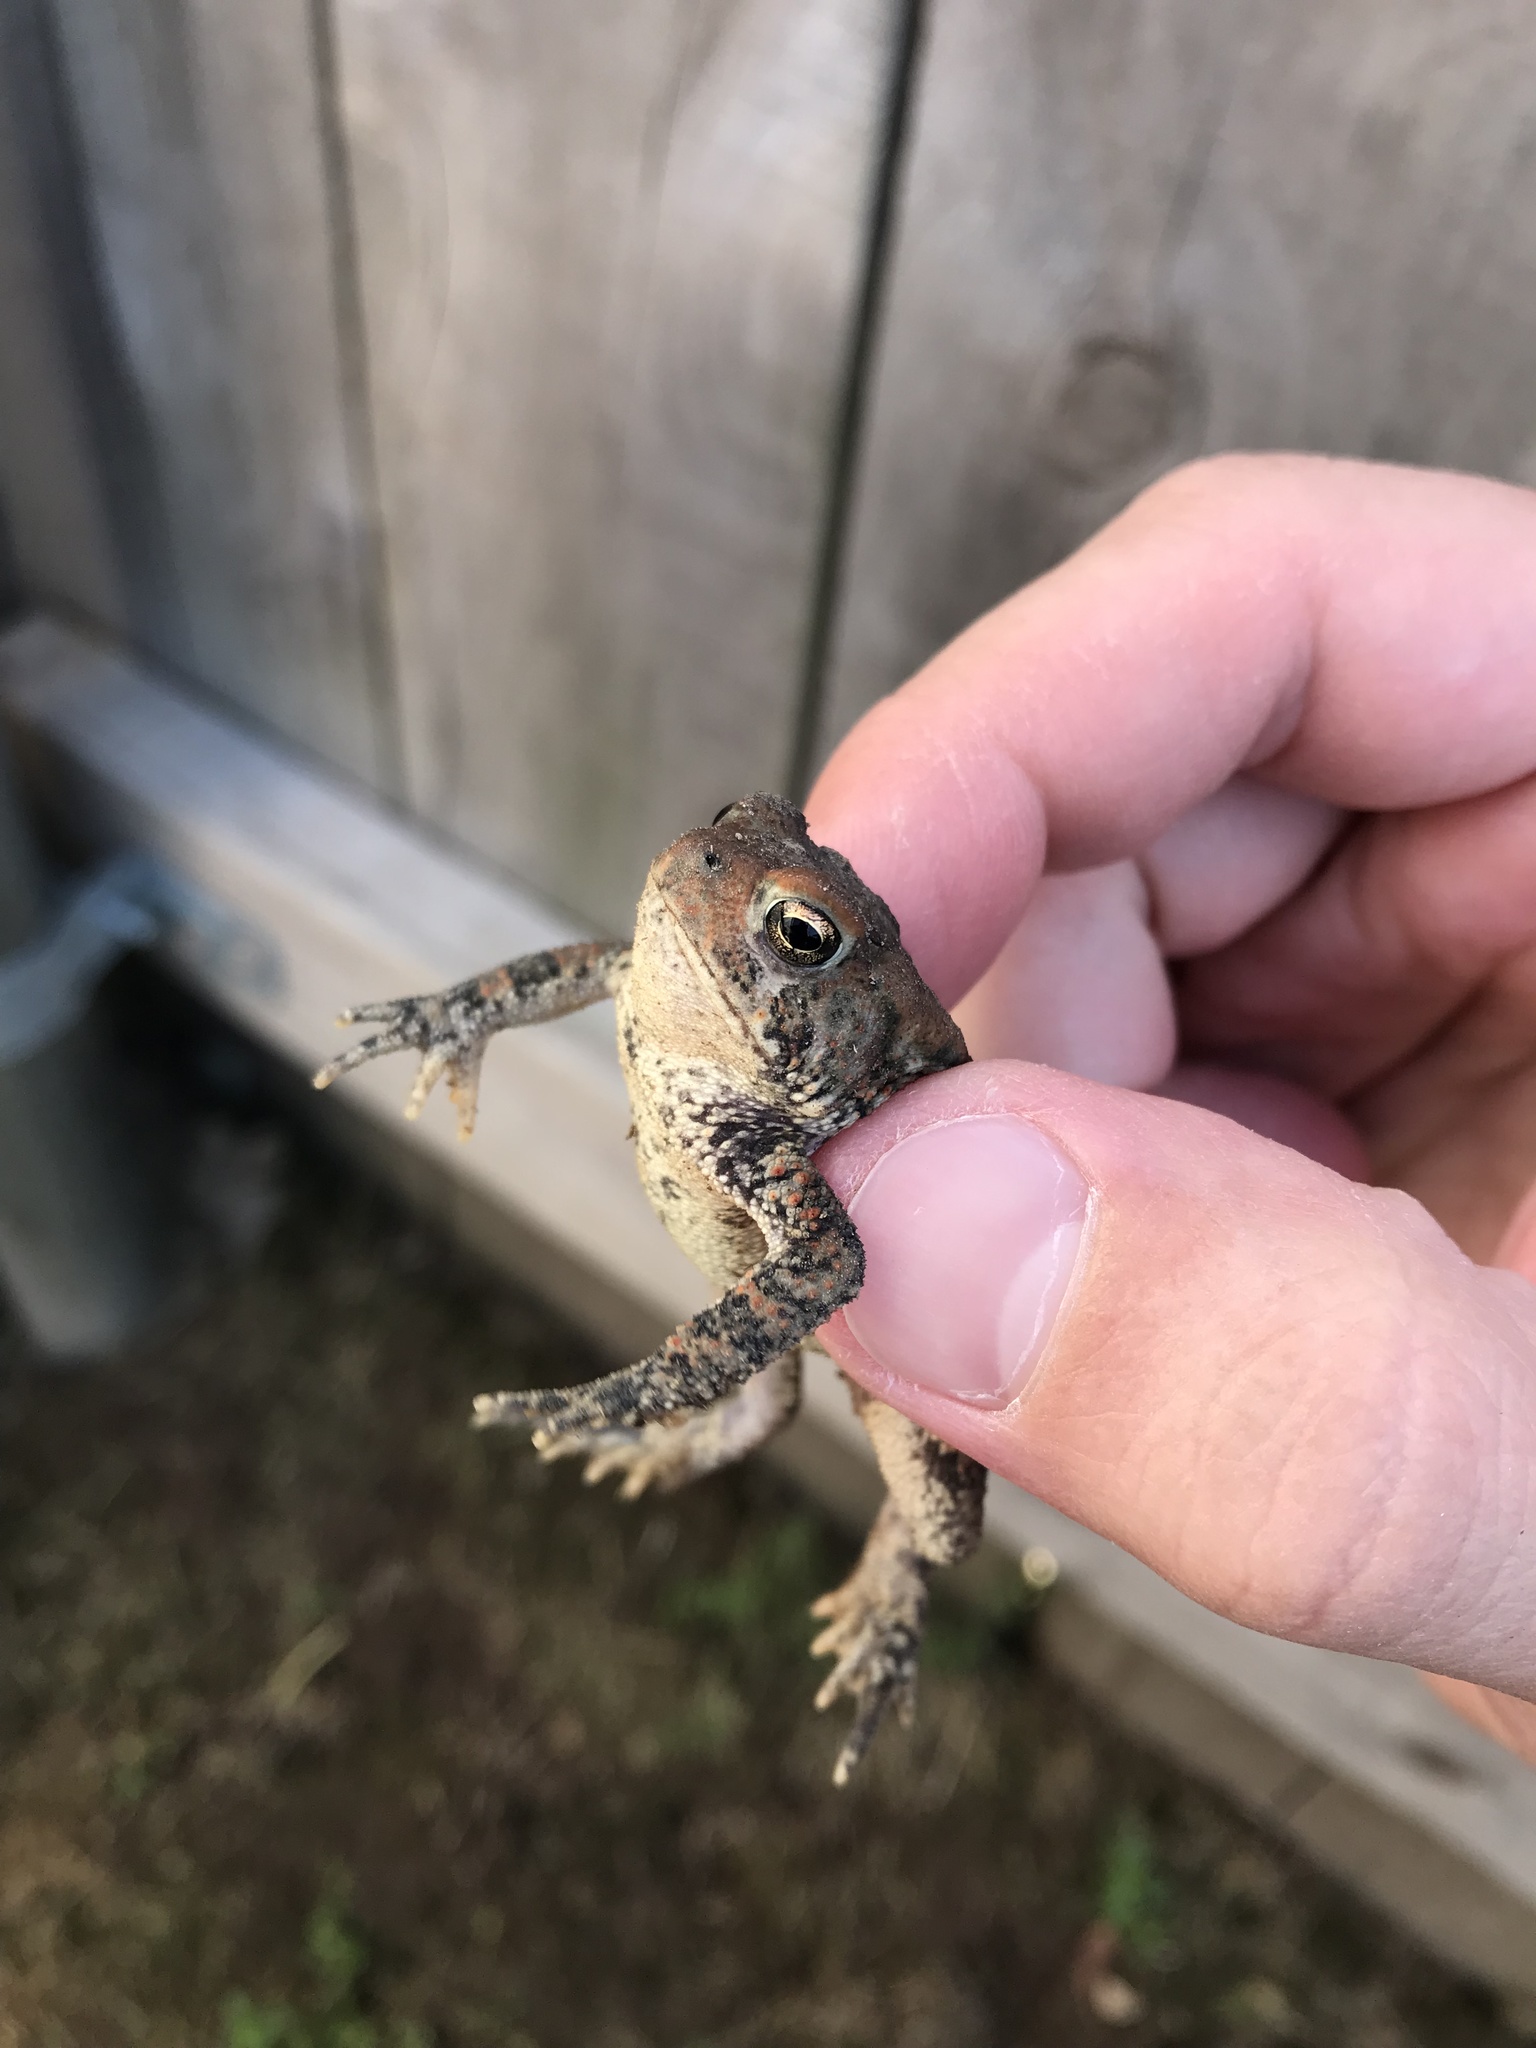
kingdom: Animalia
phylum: Chordata
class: Amphibia
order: Anura
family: Bufonidae
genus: Anaxyrus
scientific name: Anaxyrus americanus
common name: American toad
